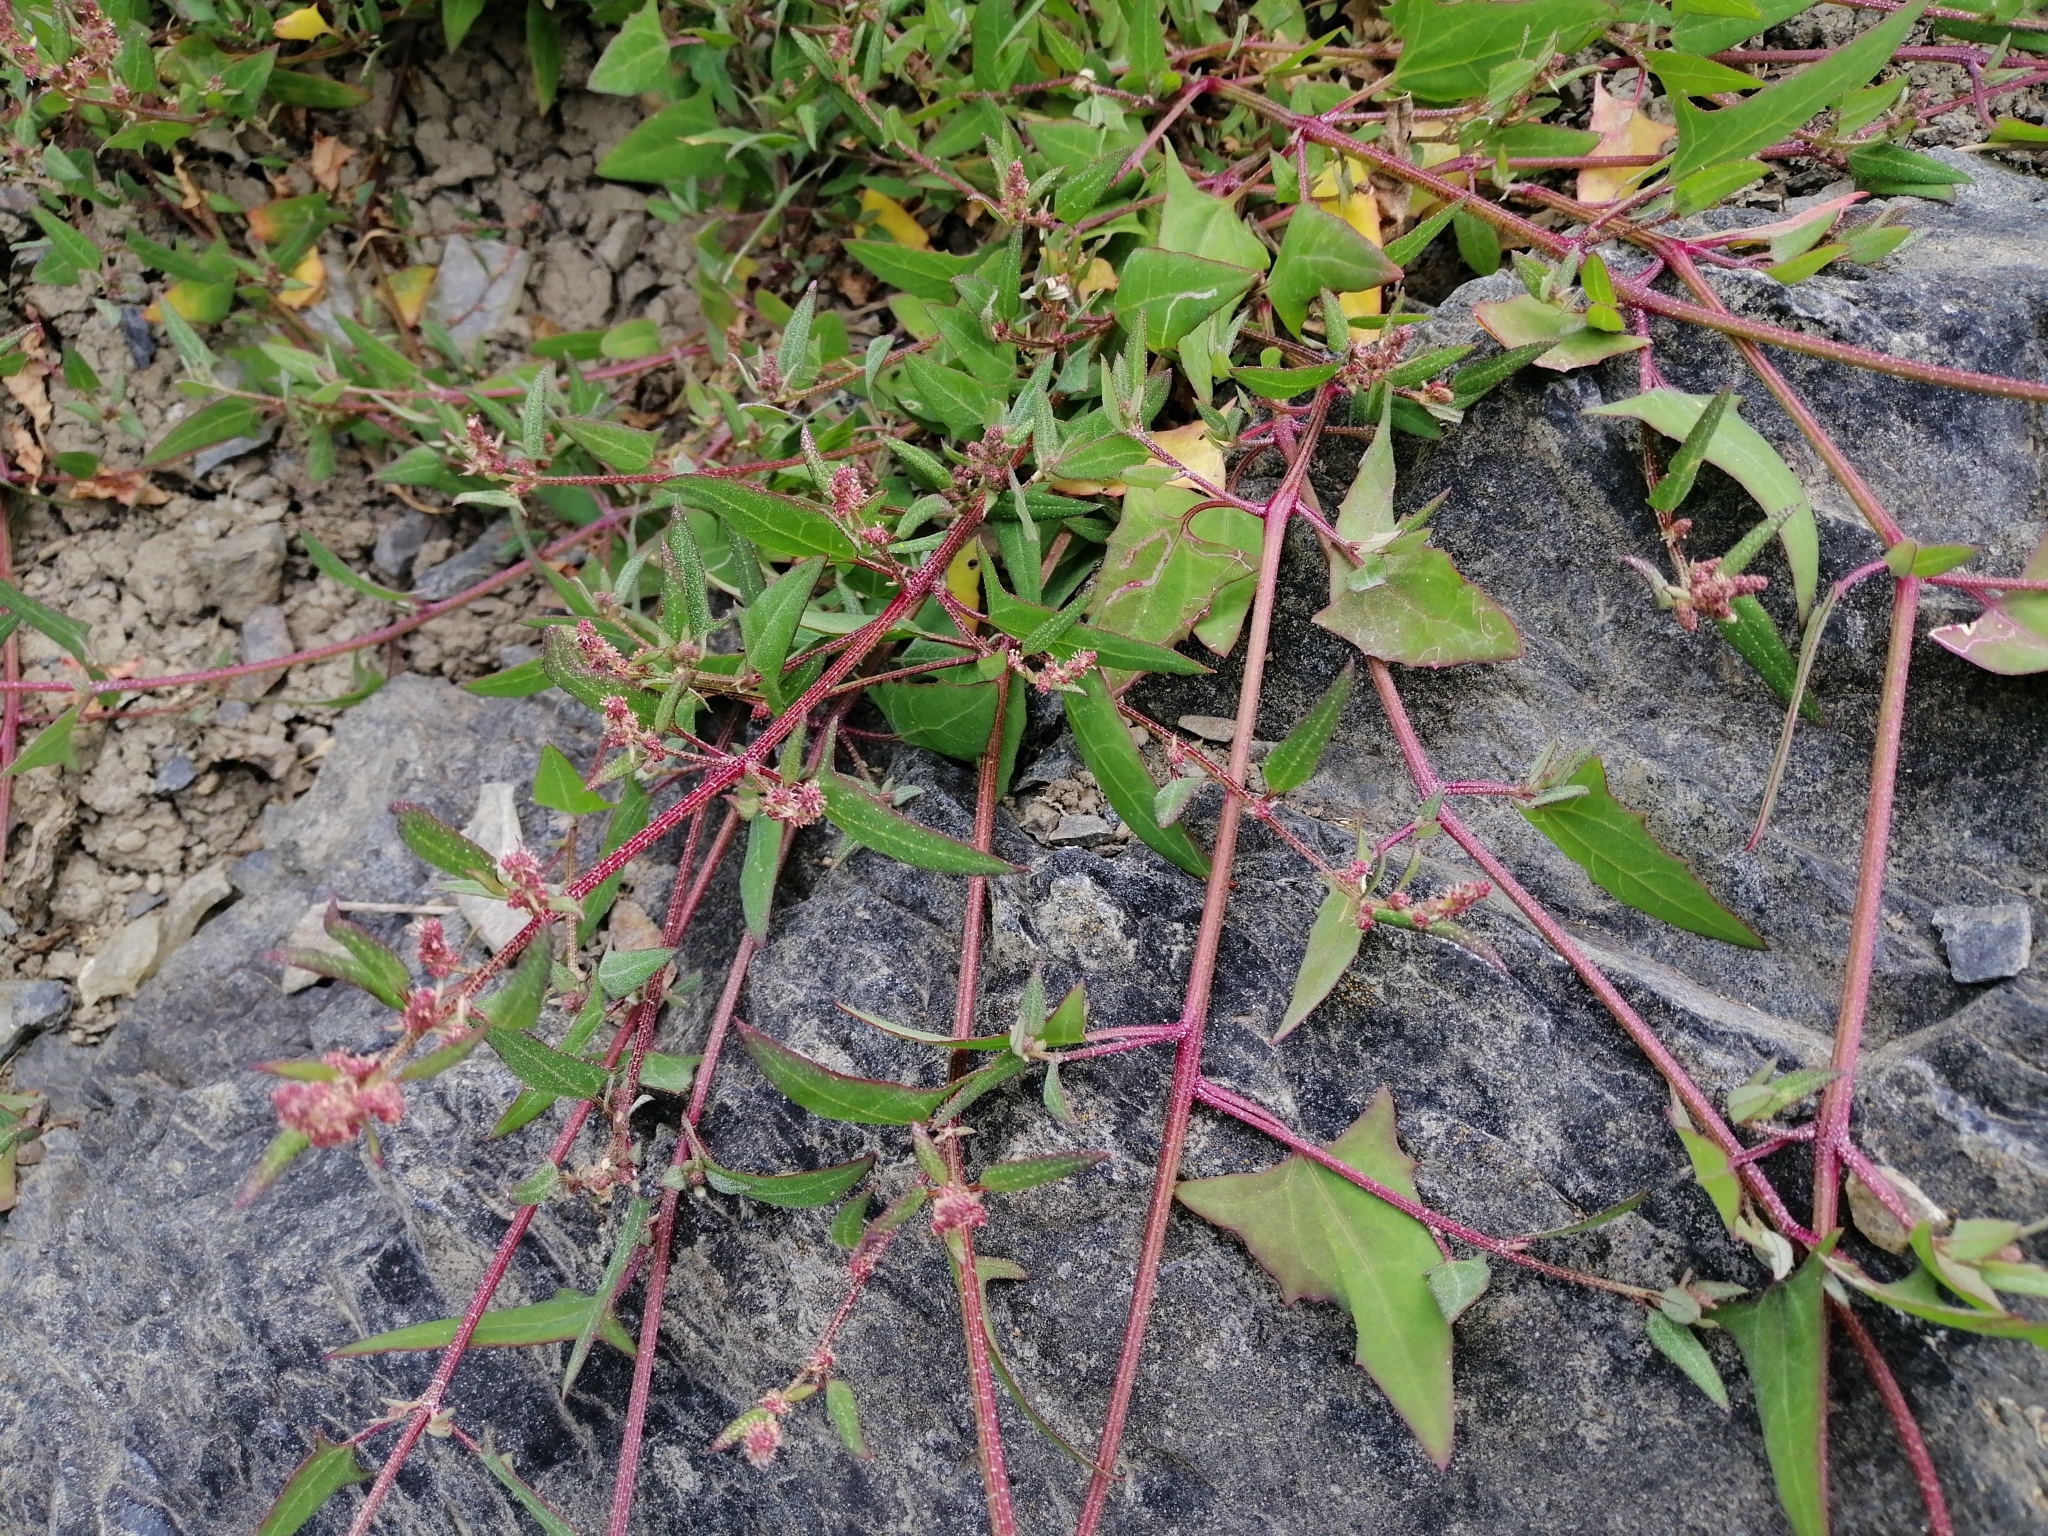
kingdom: Plantae
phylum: Tracheophyta
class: Magnoliopsida
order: Caryophyllales
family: Amaranthaceae
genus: Atriplex
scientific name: Atriplex prostrata
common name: Spear-leaved orache
